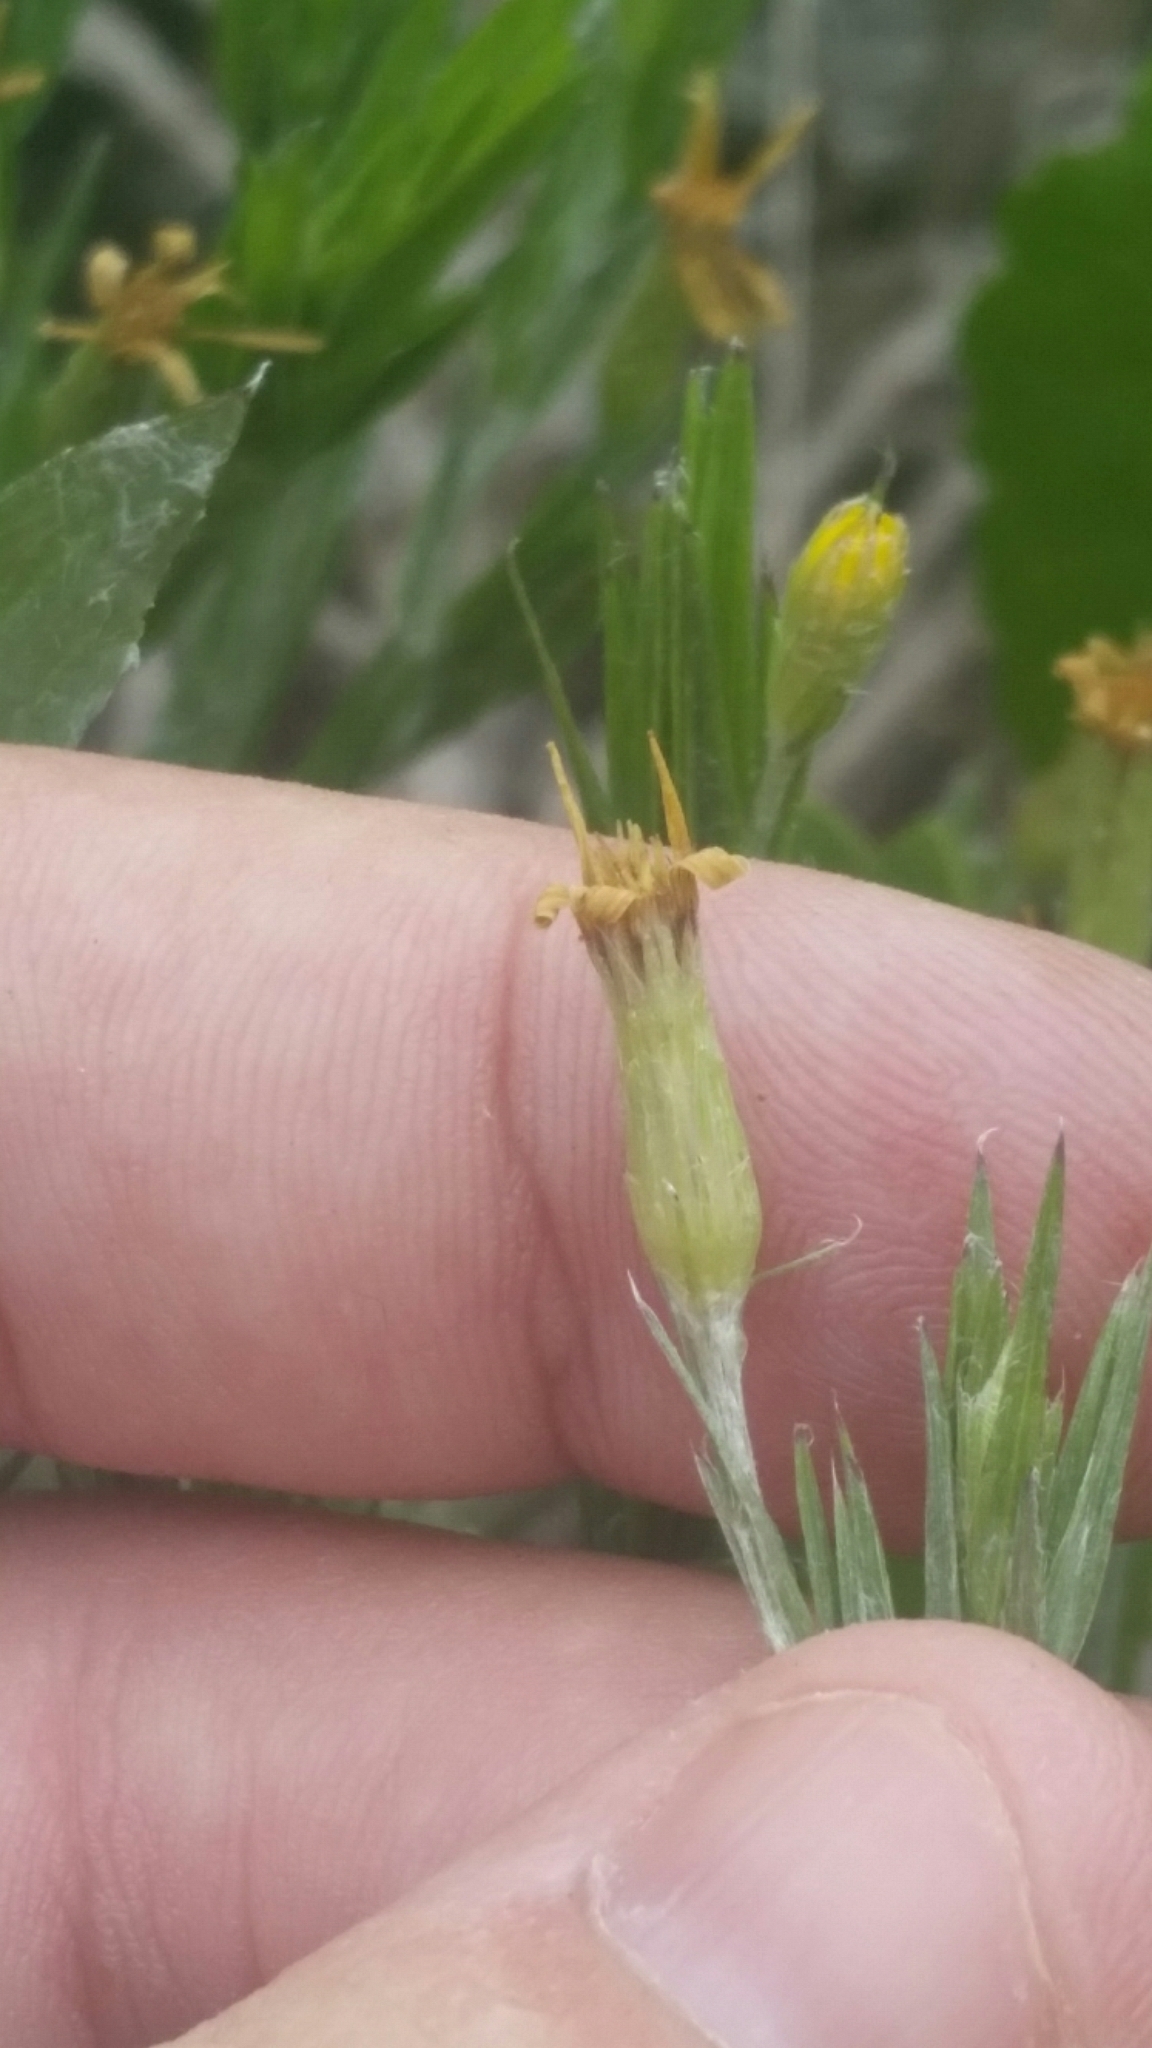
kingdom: Plantae
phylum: Tracheophyta
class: Magnoliopsida
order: Asterales
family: Asteraceae
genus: Pityopsis
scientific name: Pityopsis latifolia
